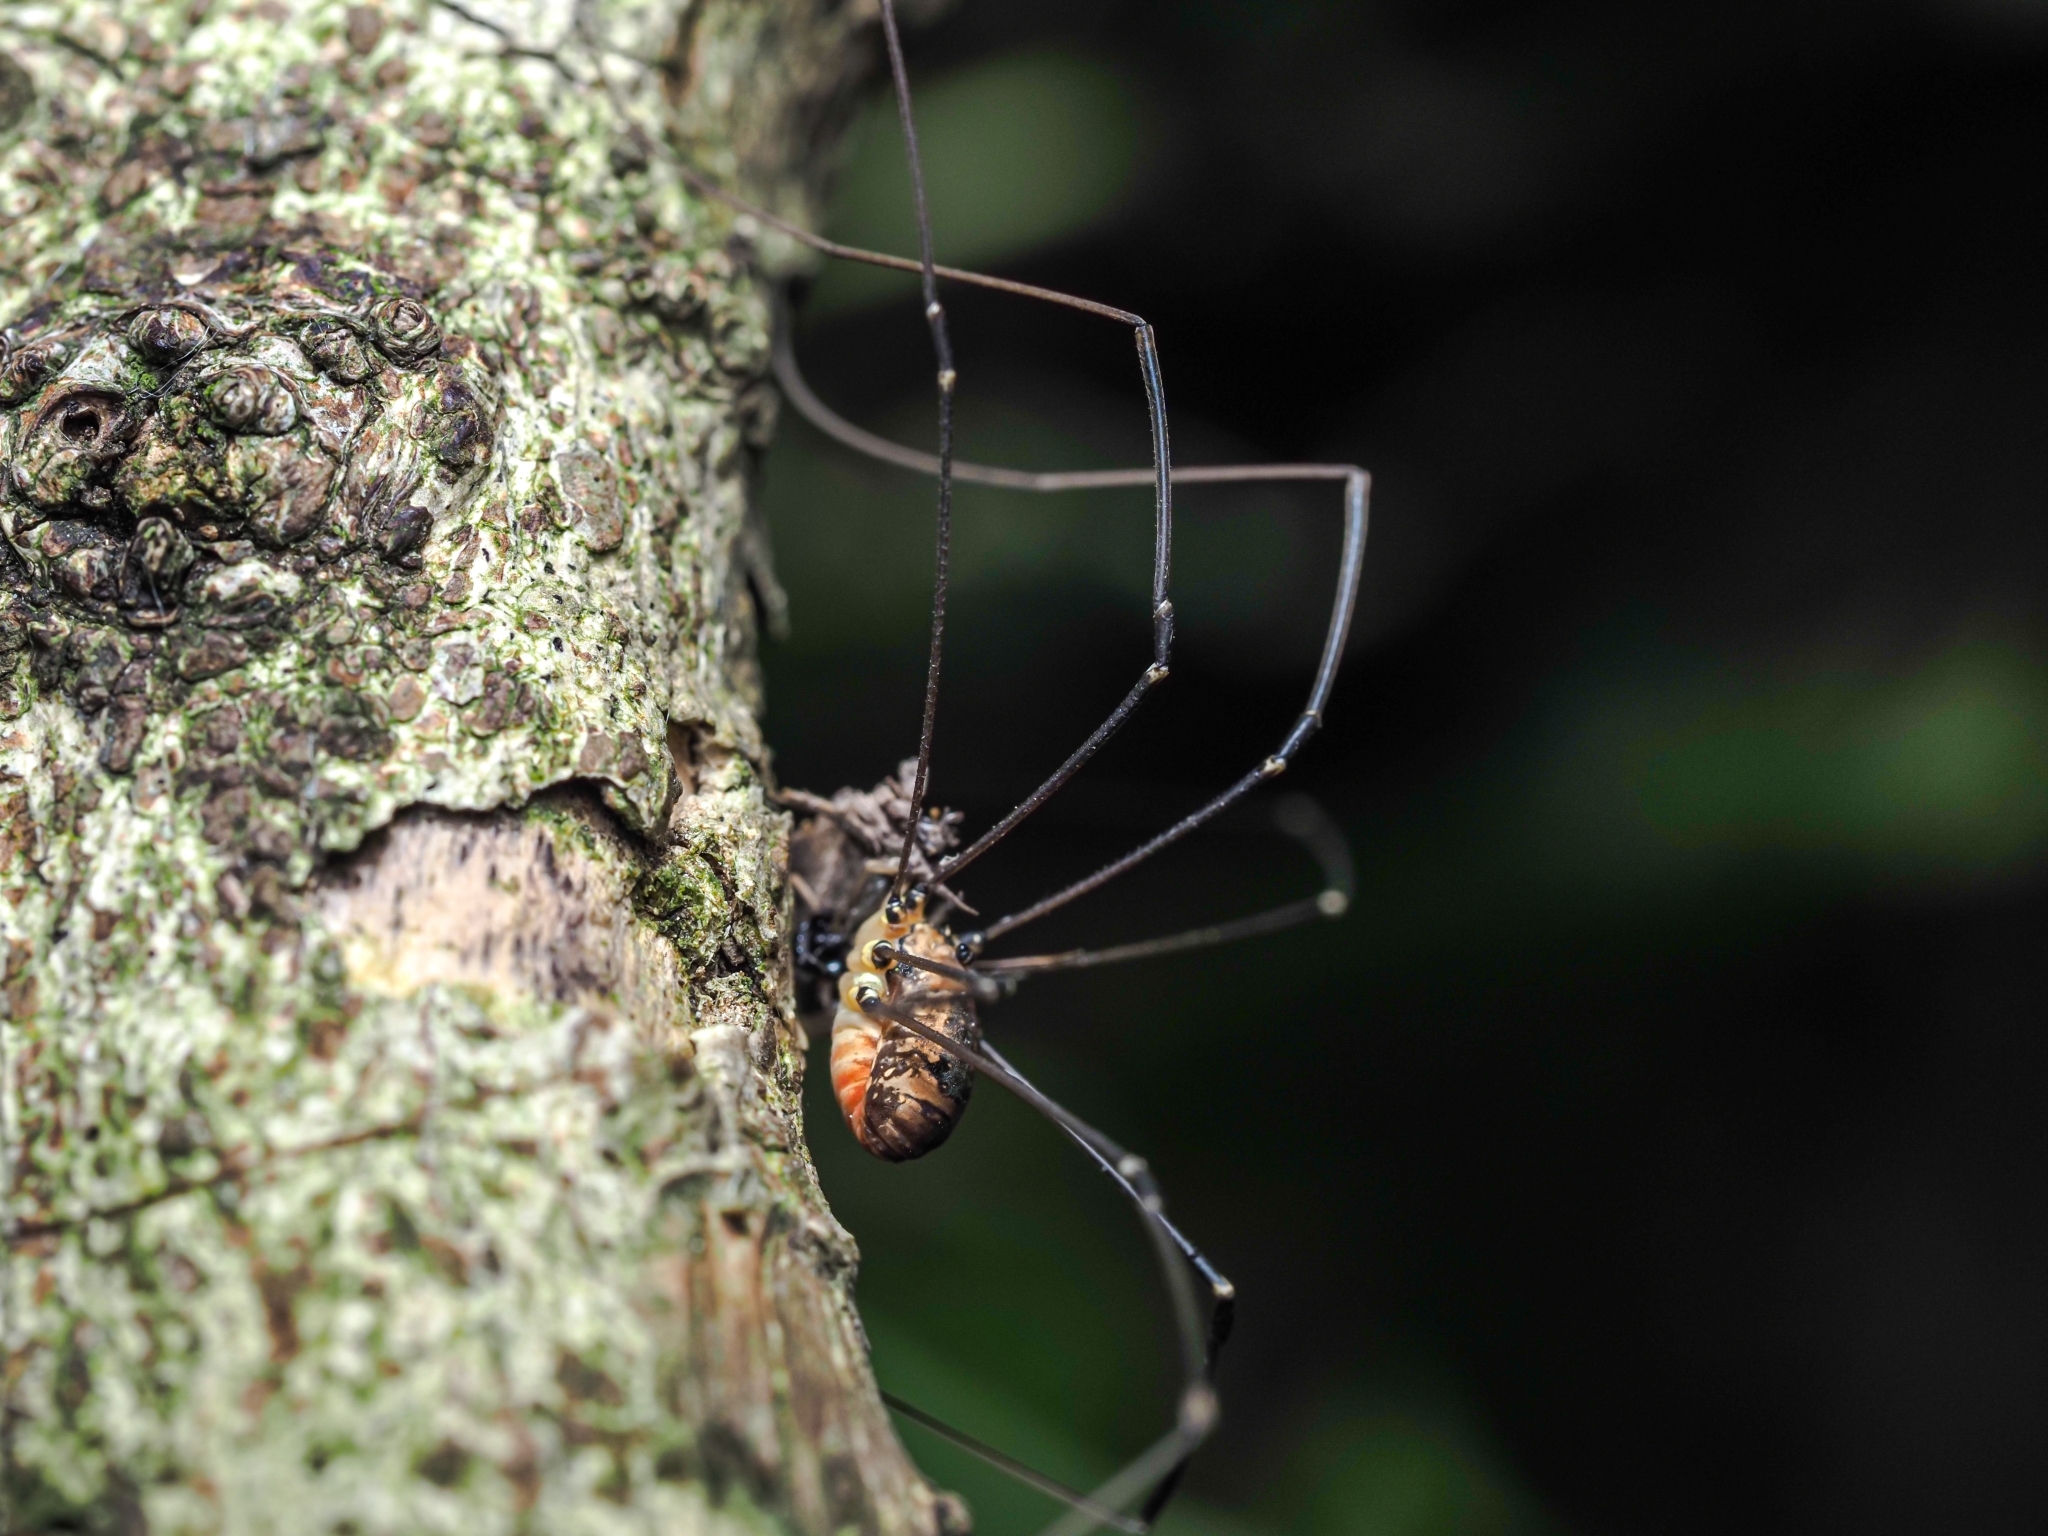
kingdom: Animalia
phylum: Arthropoda
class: Arachnida
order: Opiliones
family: Sclerosomatidae
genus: Leiobunum
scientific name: Leiobunum rotundum
